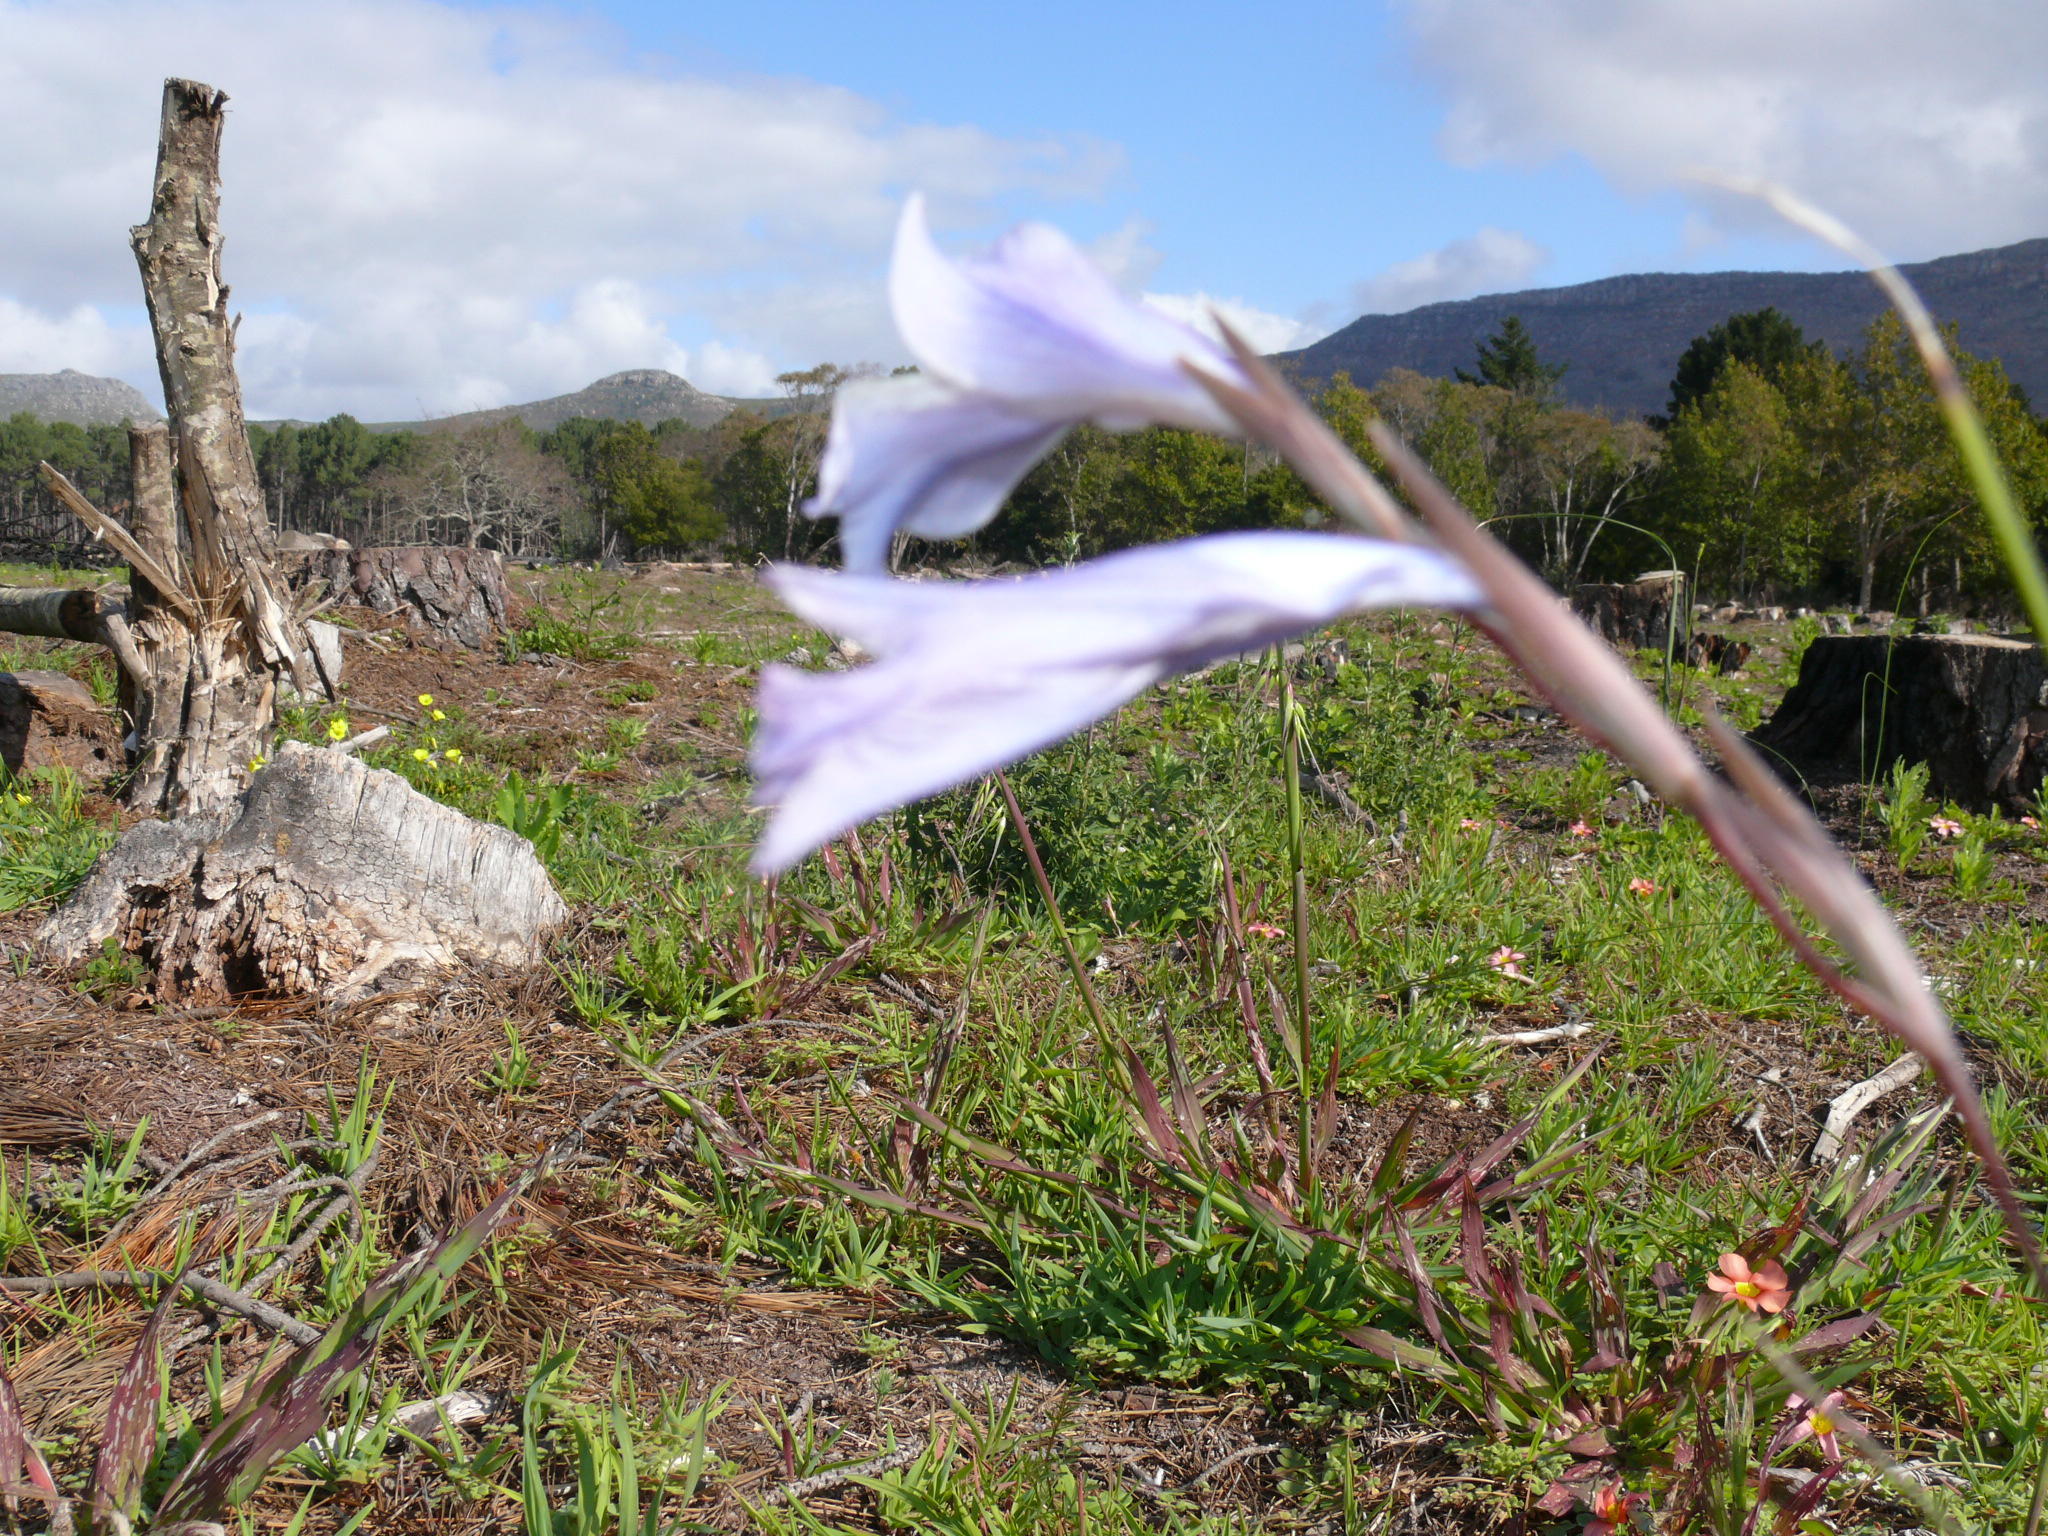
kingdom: Plantae
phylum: Tracheophyta
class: Liliopsida
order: Asparagales
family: Iridaceae
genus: Gladiolus
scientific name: Gladiolus gracilis
